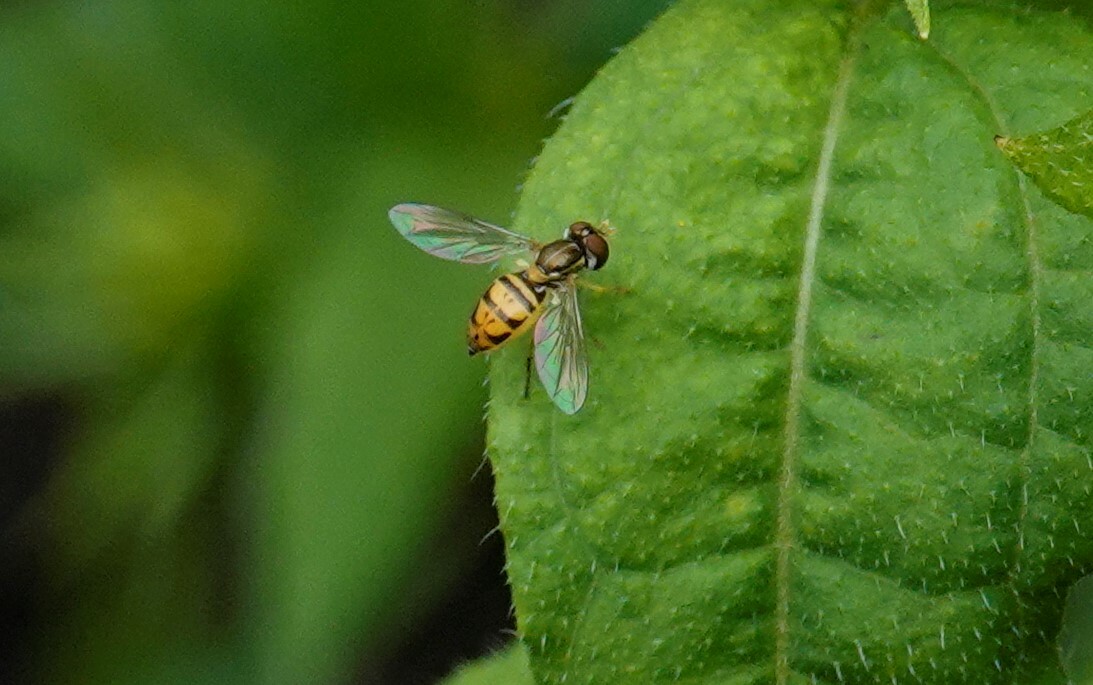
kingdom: Animalia
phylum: Arthropoda
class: Insecta
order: Diptera
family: Syrphidae
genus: Toxomerus
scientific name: Toxomerus marginatus
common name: Syrphid fly
